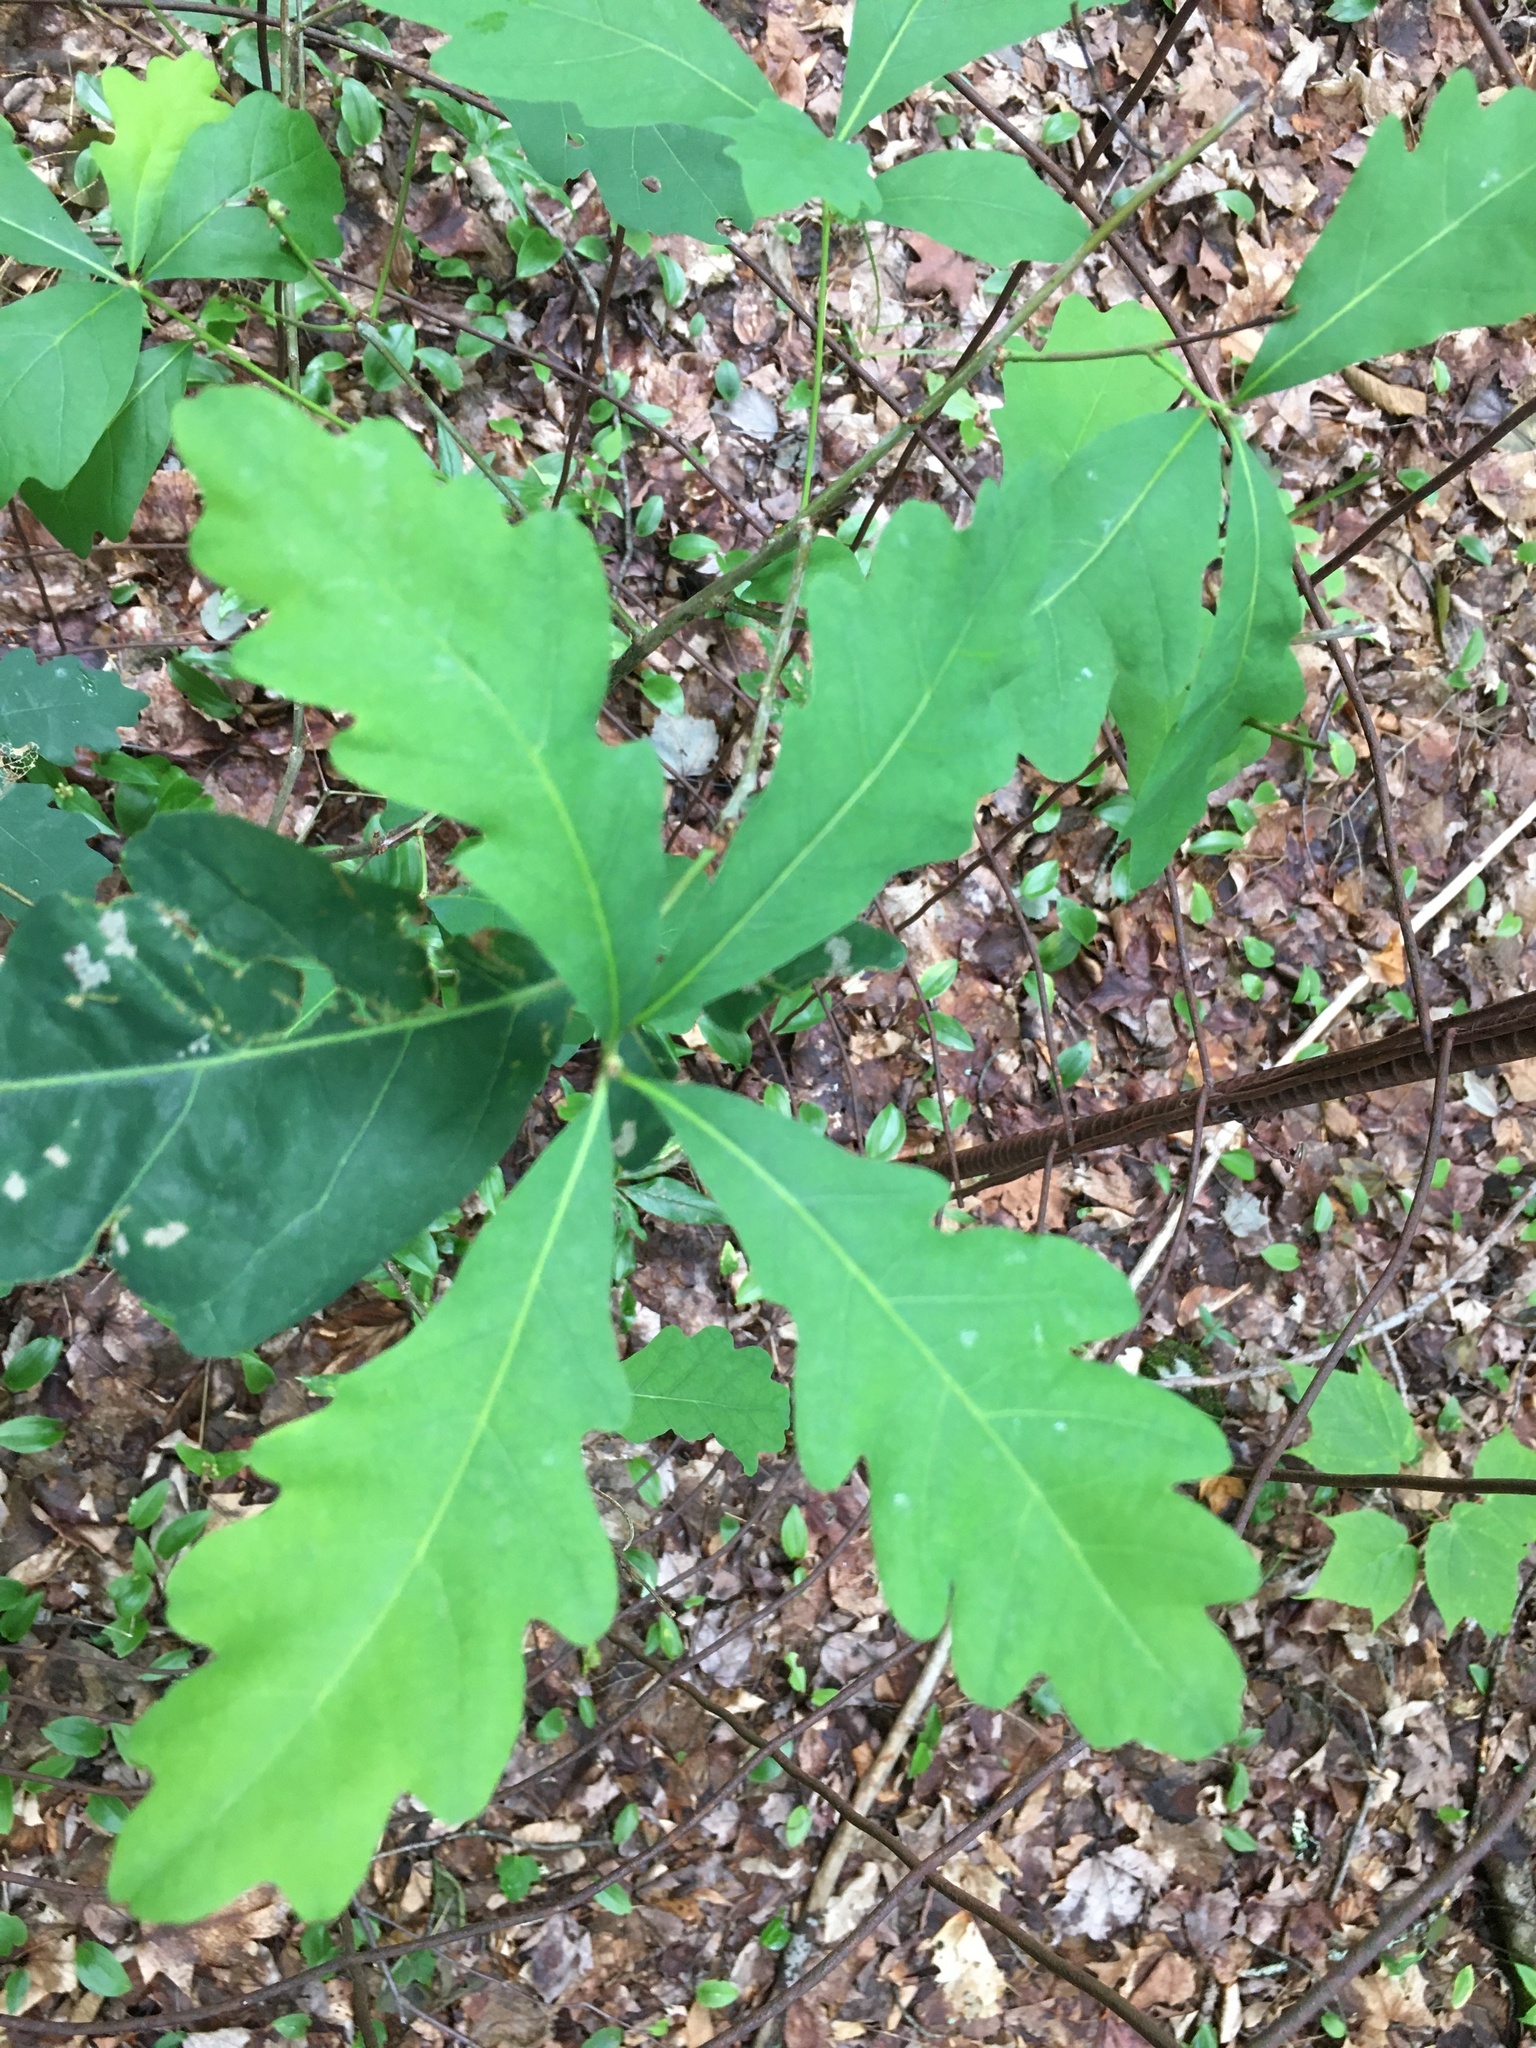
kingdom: Plantae
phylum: Tracheophyta
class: Magnoliopsida
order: Fagales
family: Fagaceae
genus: Quercus
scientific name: Quercus alba
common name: White oak
